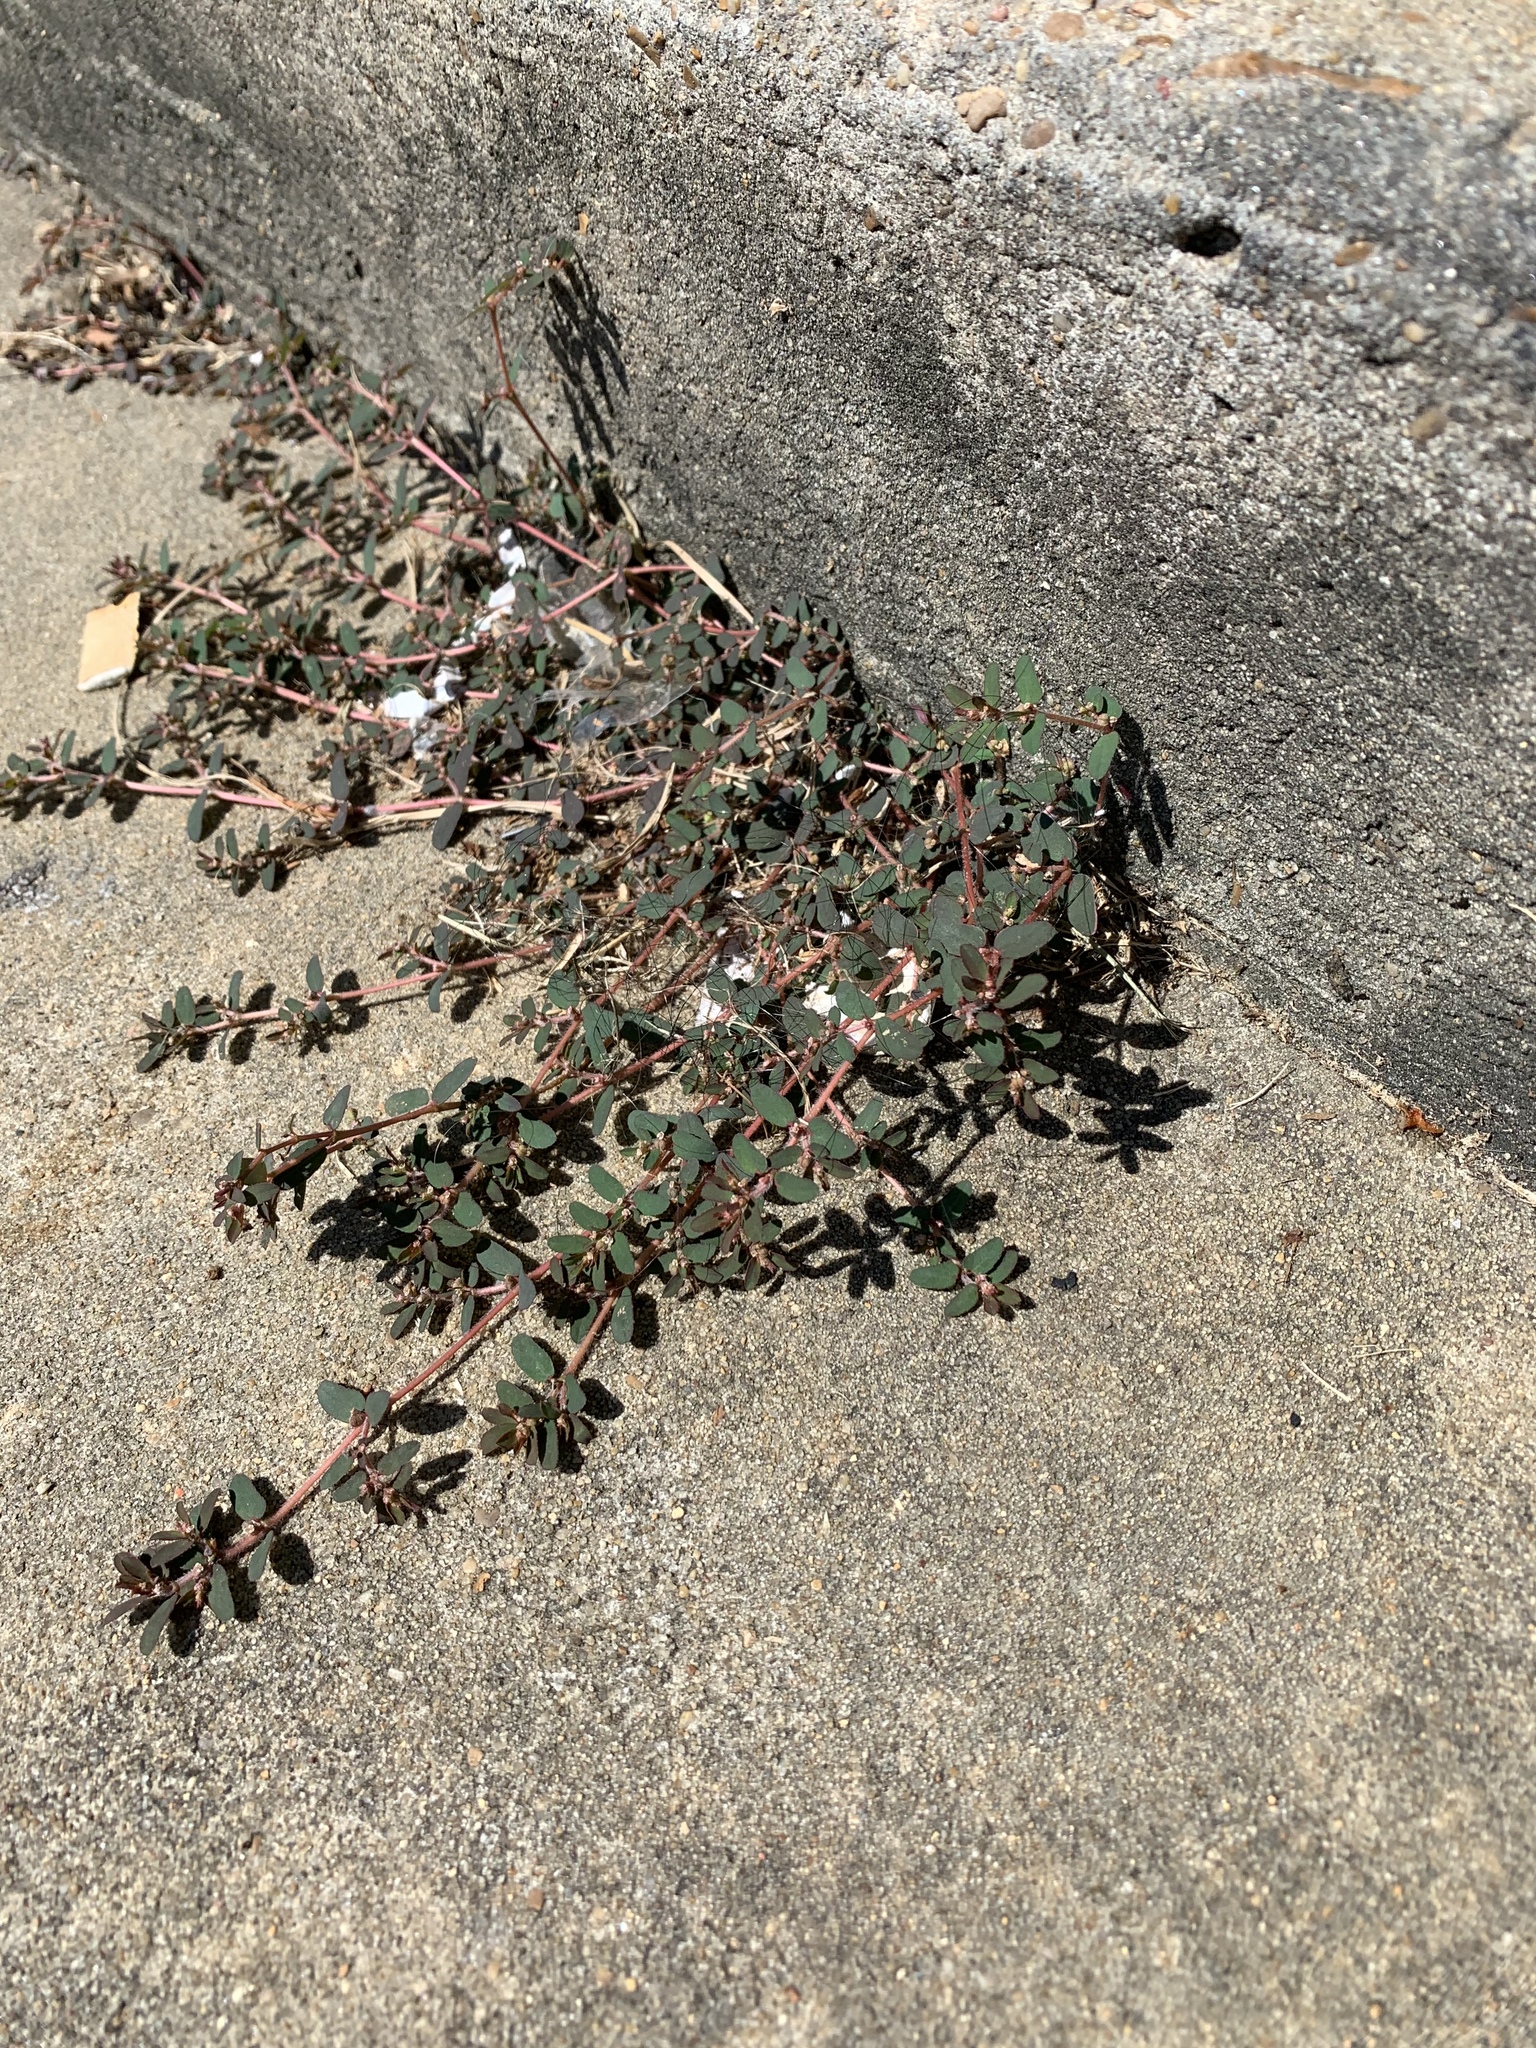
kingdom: Plantae
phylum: Tracheophyta
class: Magnoliopsida
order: Malpighiales
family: Euphorbiaceae
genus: Euphorbia
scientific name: Euphorbia maculata
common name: Spotted spurge
